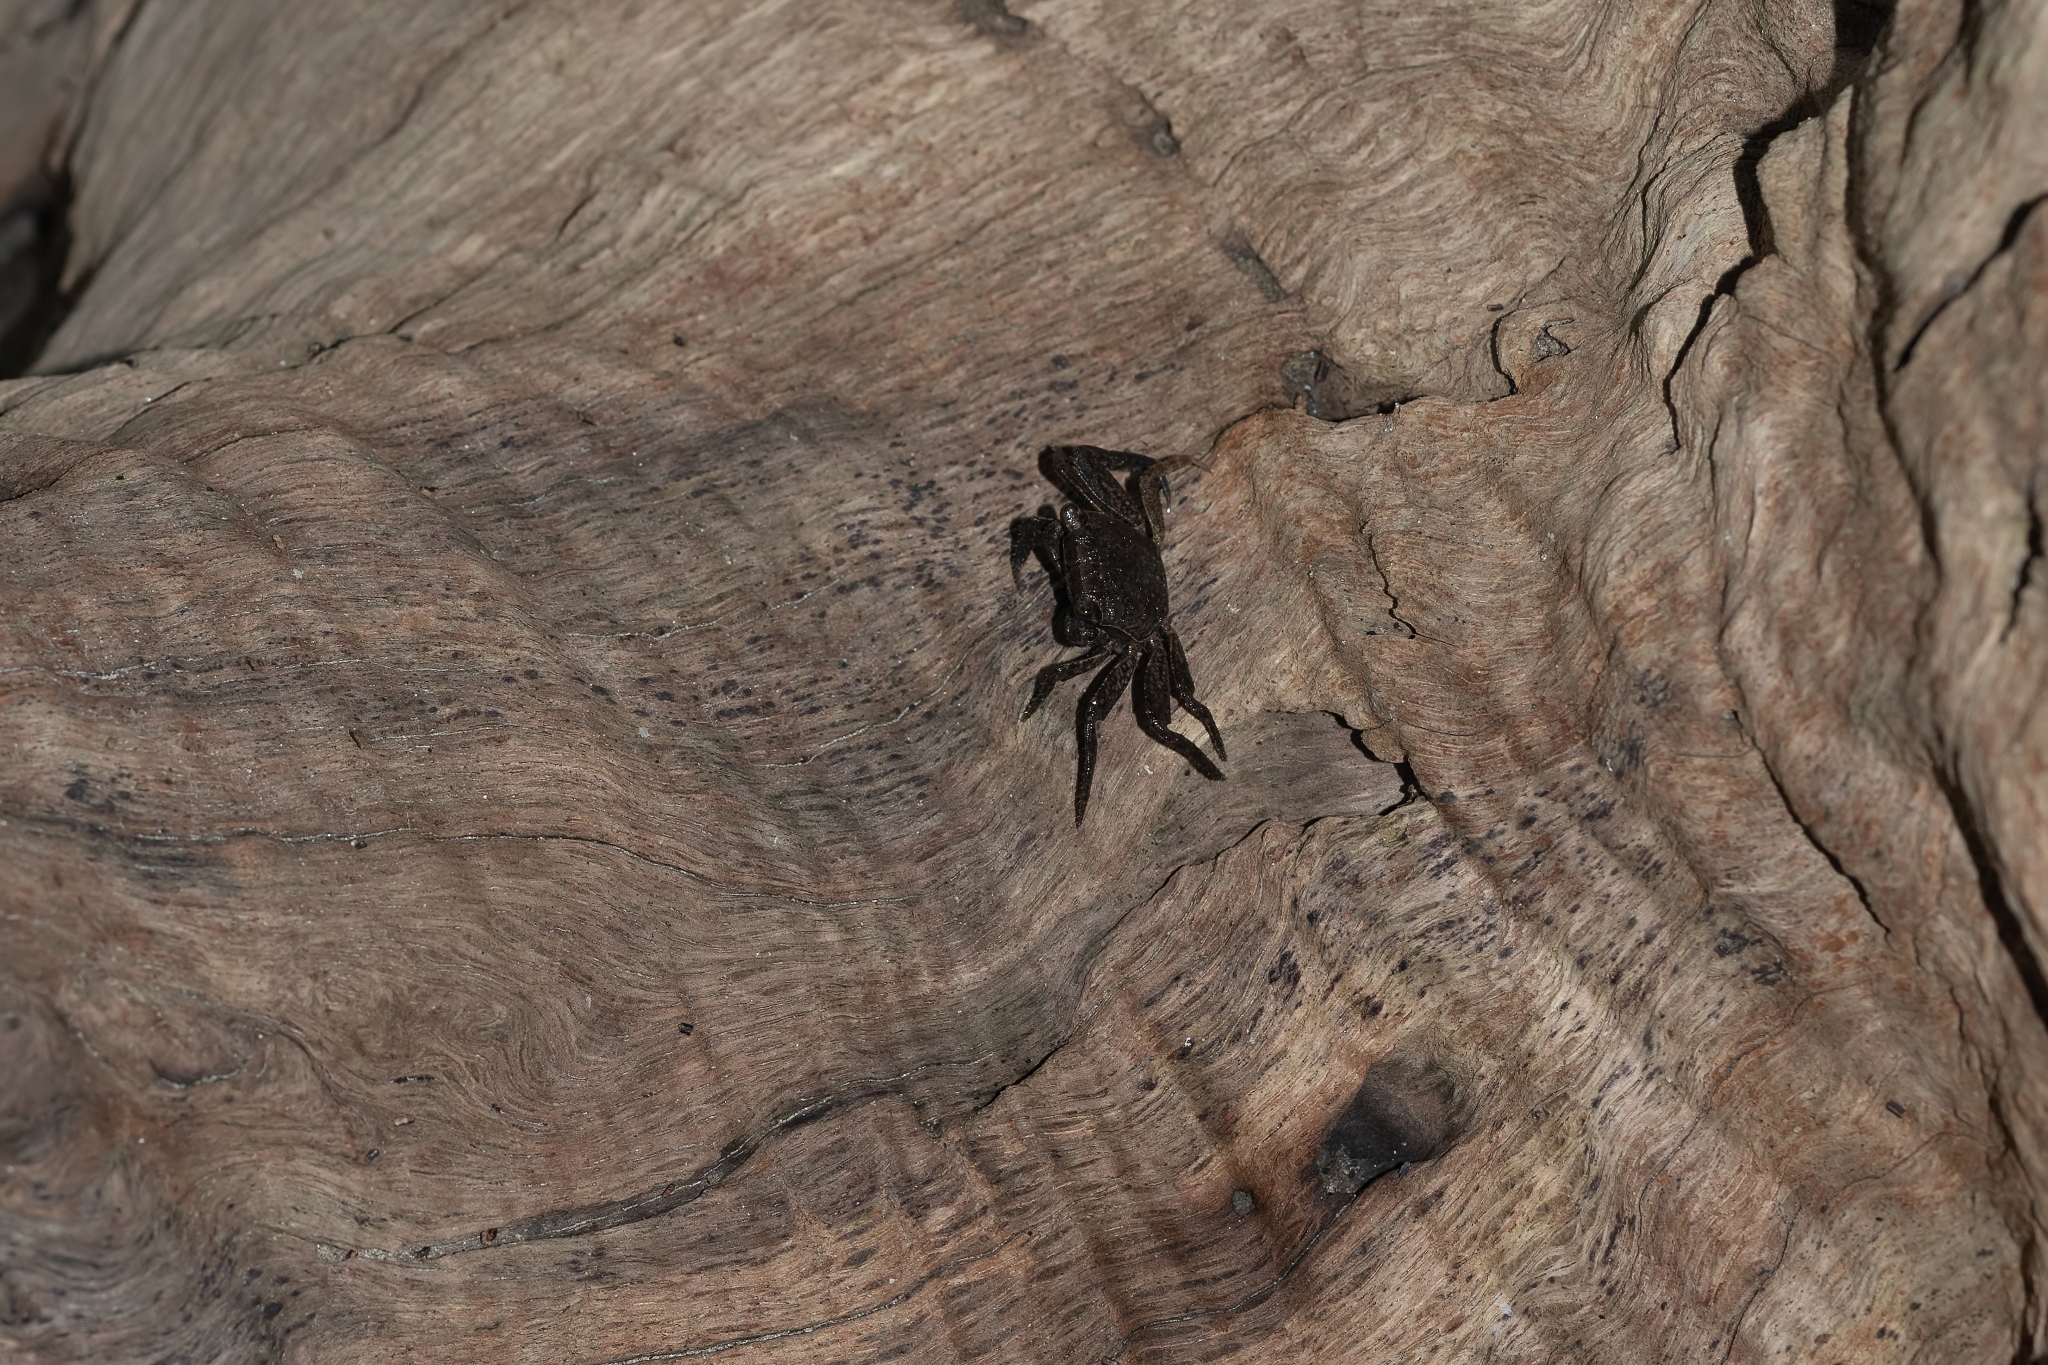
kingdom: Animalia
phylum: Arthropoda
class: Malacostraca
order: Decapoda
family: Sesarmidae
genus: Armases
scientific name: Armases cinereum
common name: Squareback marsh crab
